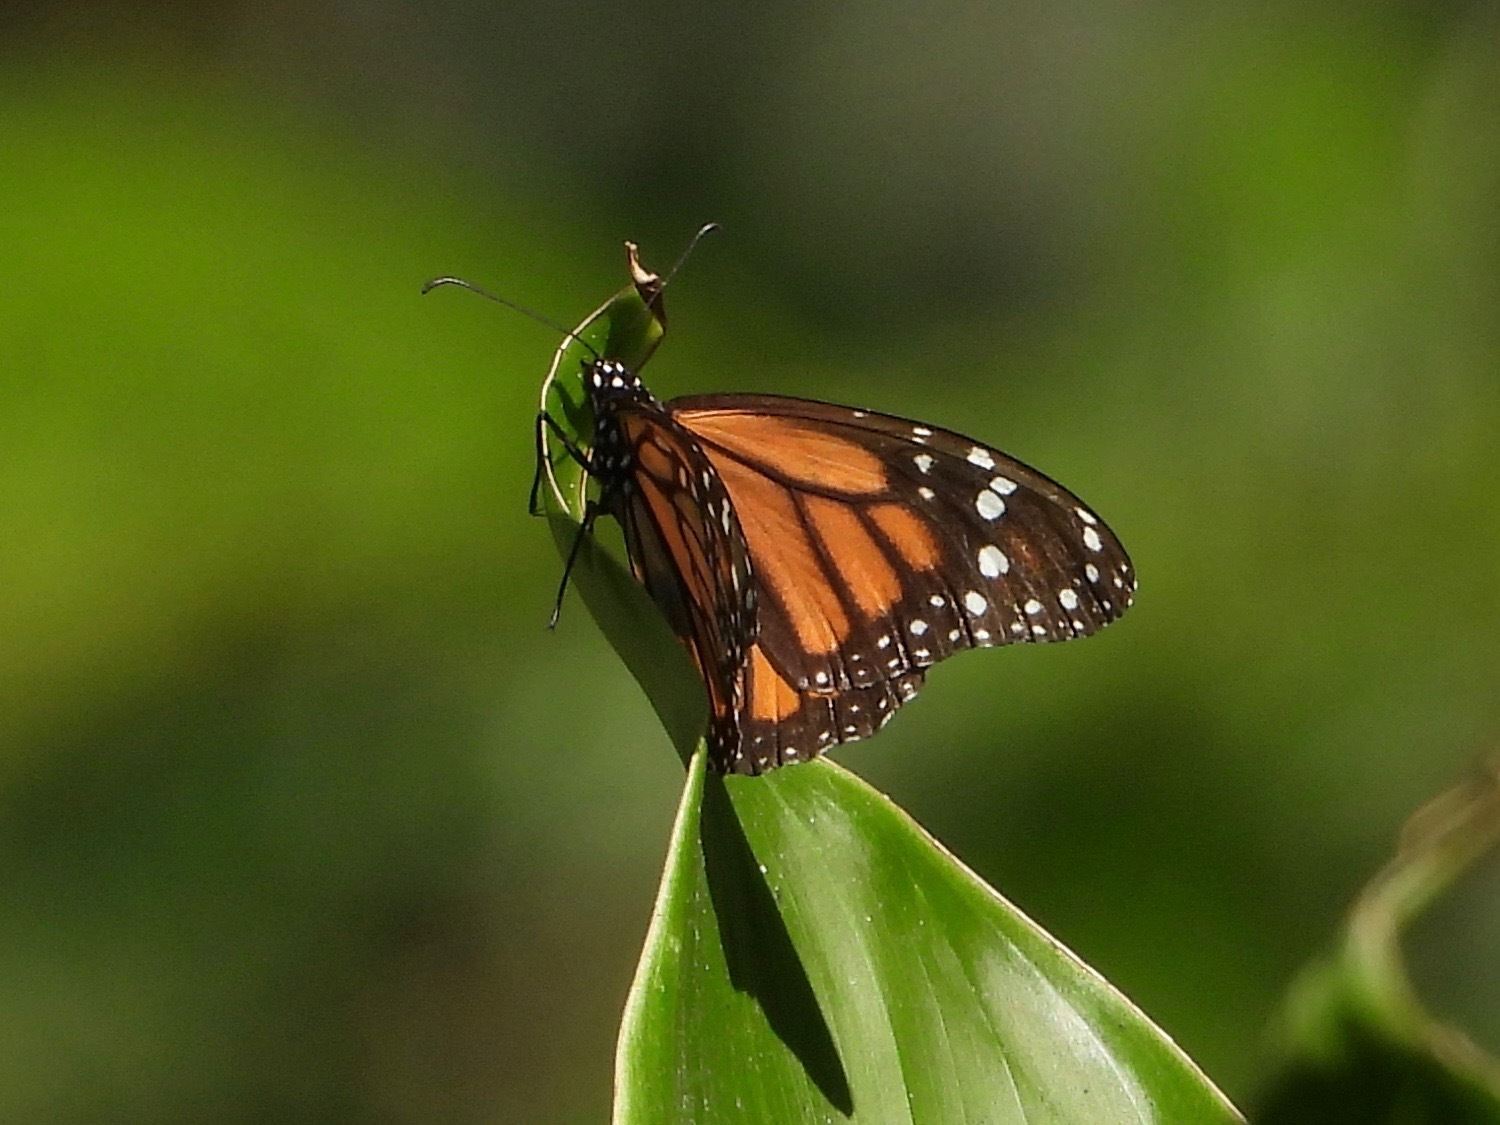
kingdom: Animalia
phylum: Arthropoda
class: Insecta
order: Lepidoptera
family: Nymphalidae
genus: Danaus
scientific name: Danaus plexippus
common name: Monarch
